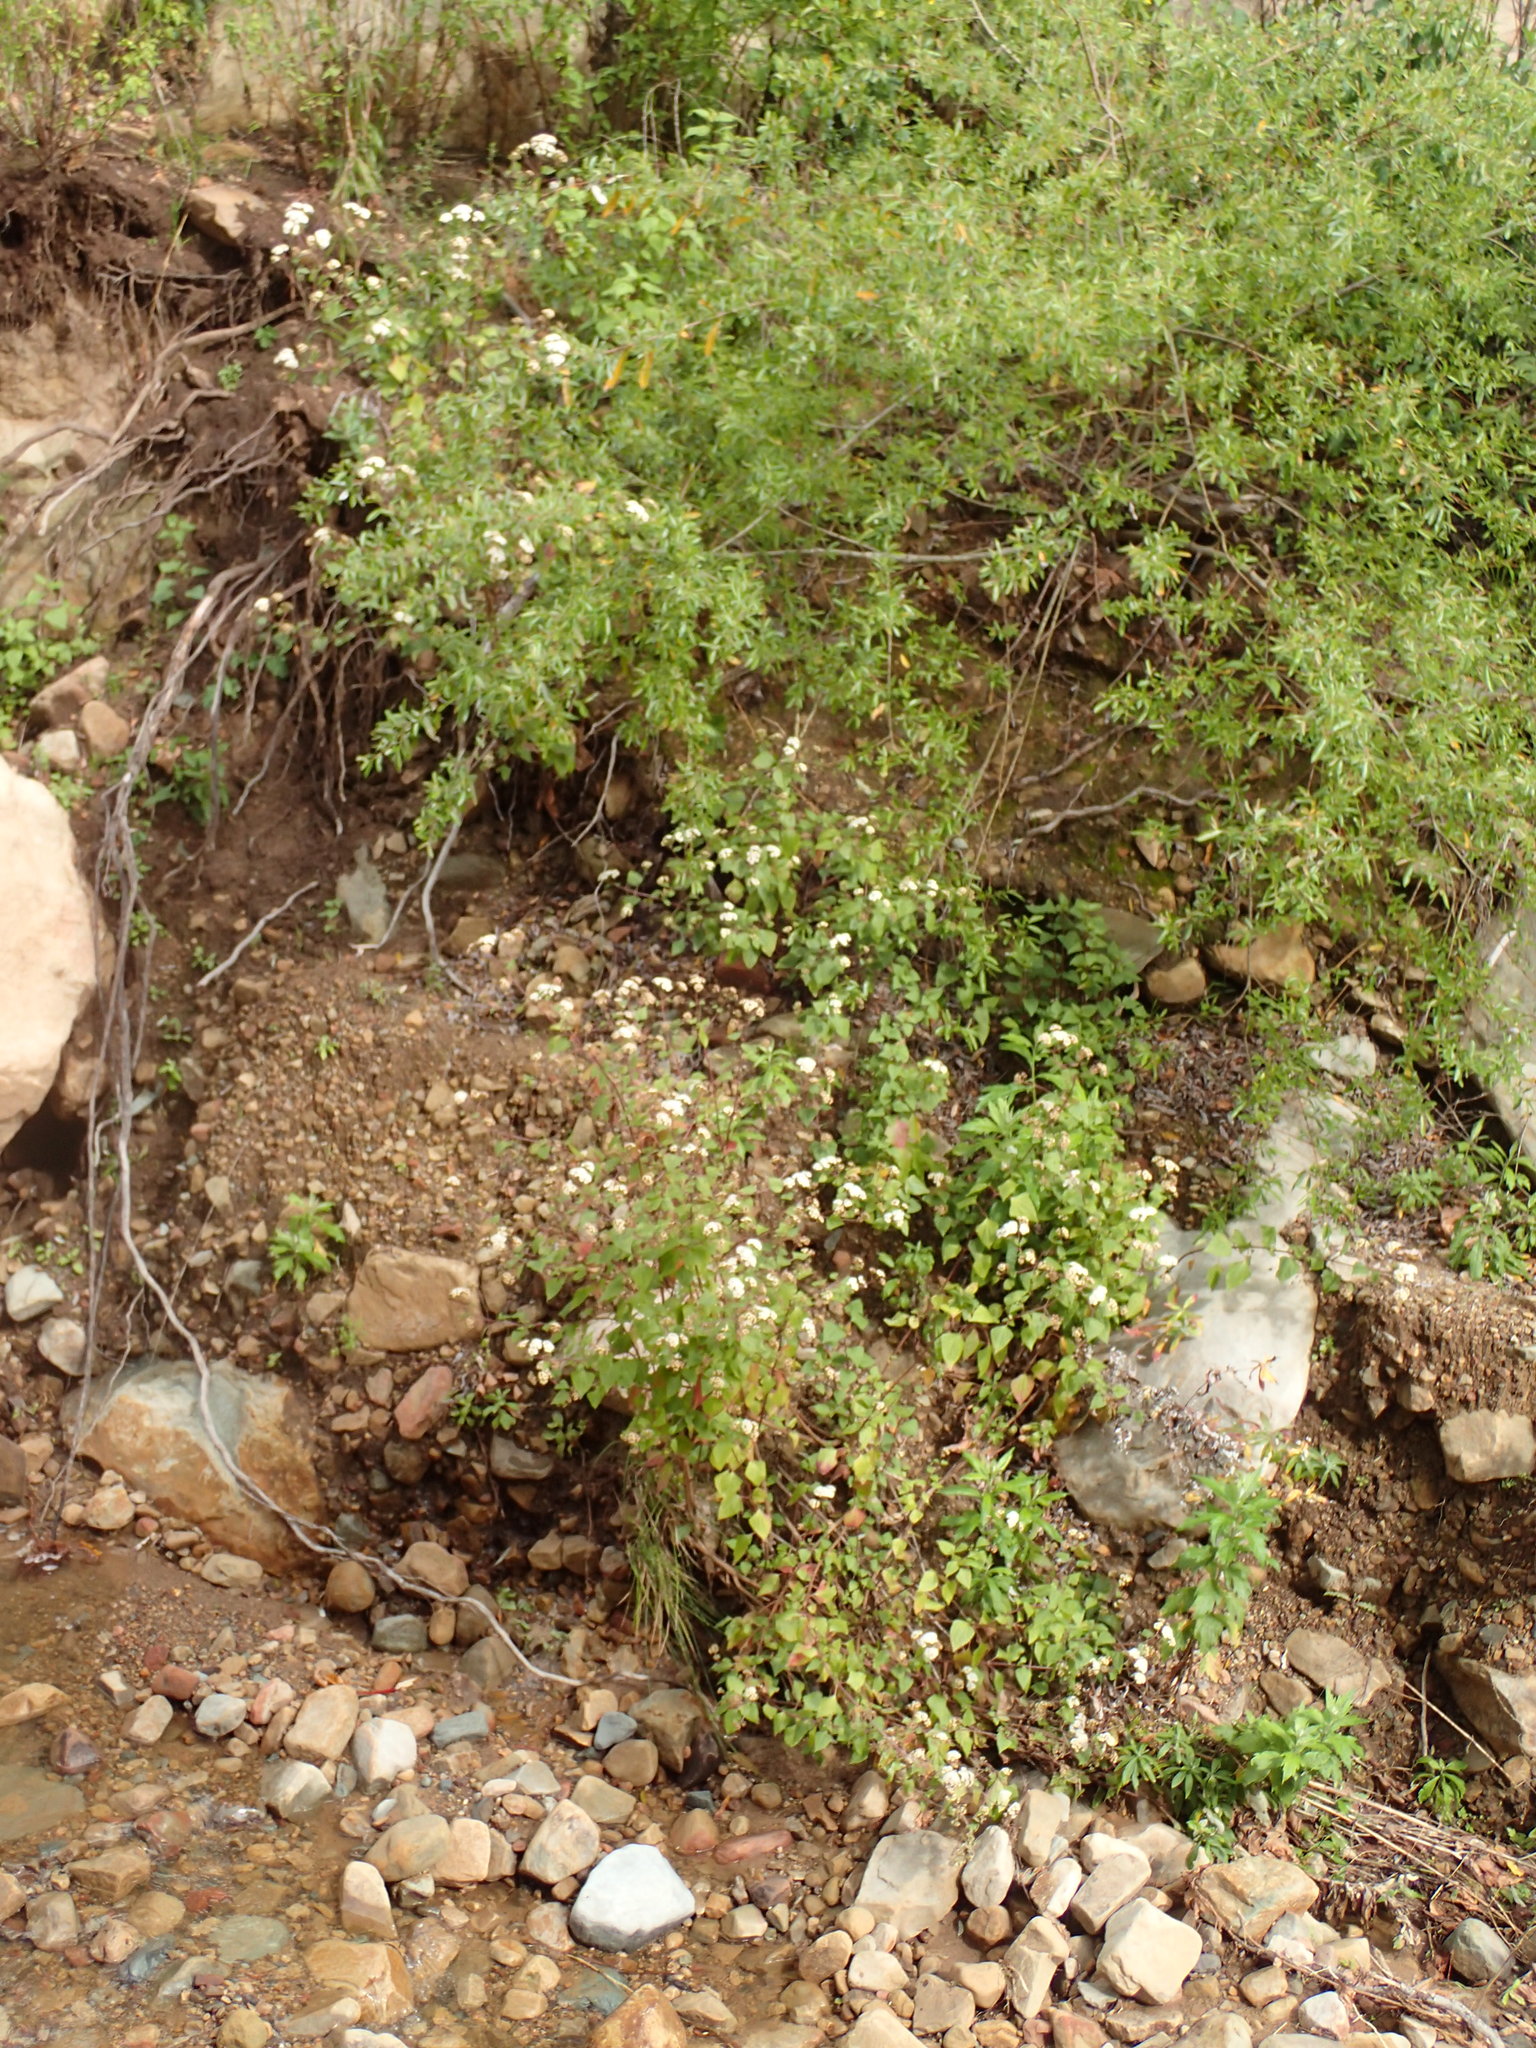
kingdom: Plantae
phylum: Tracheophyta
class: Magnoliopsida
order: Asterales
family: Asteraceae
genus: Ageratina
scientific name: Ageratina adenophora
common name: Sticky snakeroot
